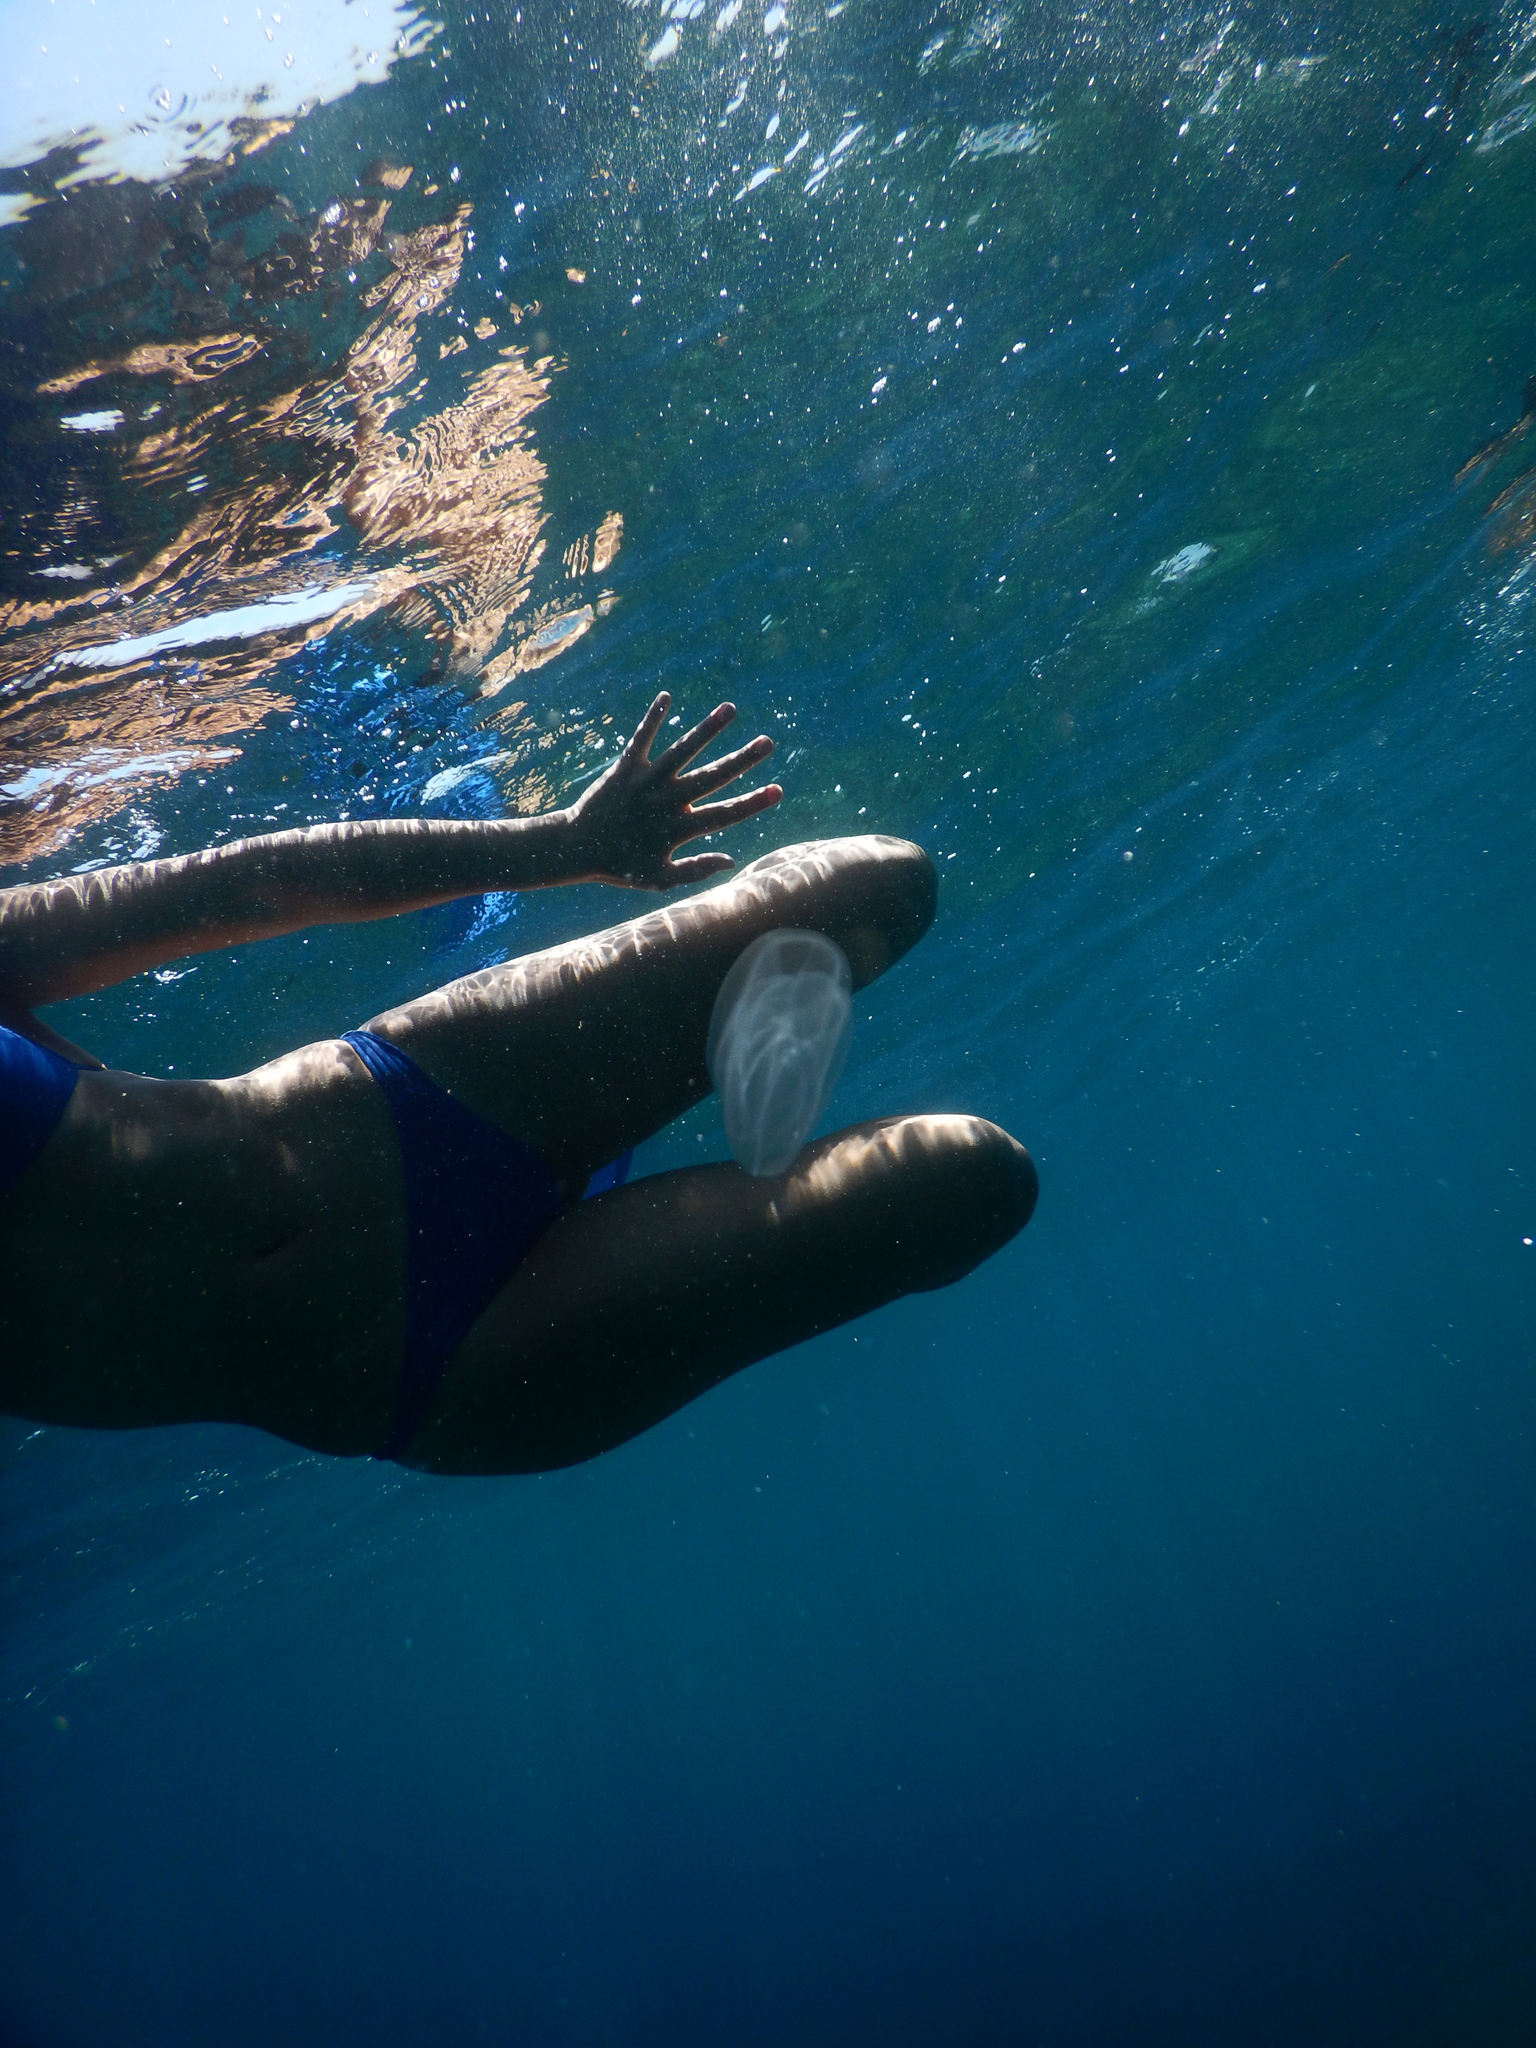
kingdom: Animalia
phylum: Ctenophora
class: Tentaculata
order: Lobata
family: Bolinopsidae
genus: Mnemiopsis
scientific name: Mnemiopsis leidyi
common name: American comb jelly
